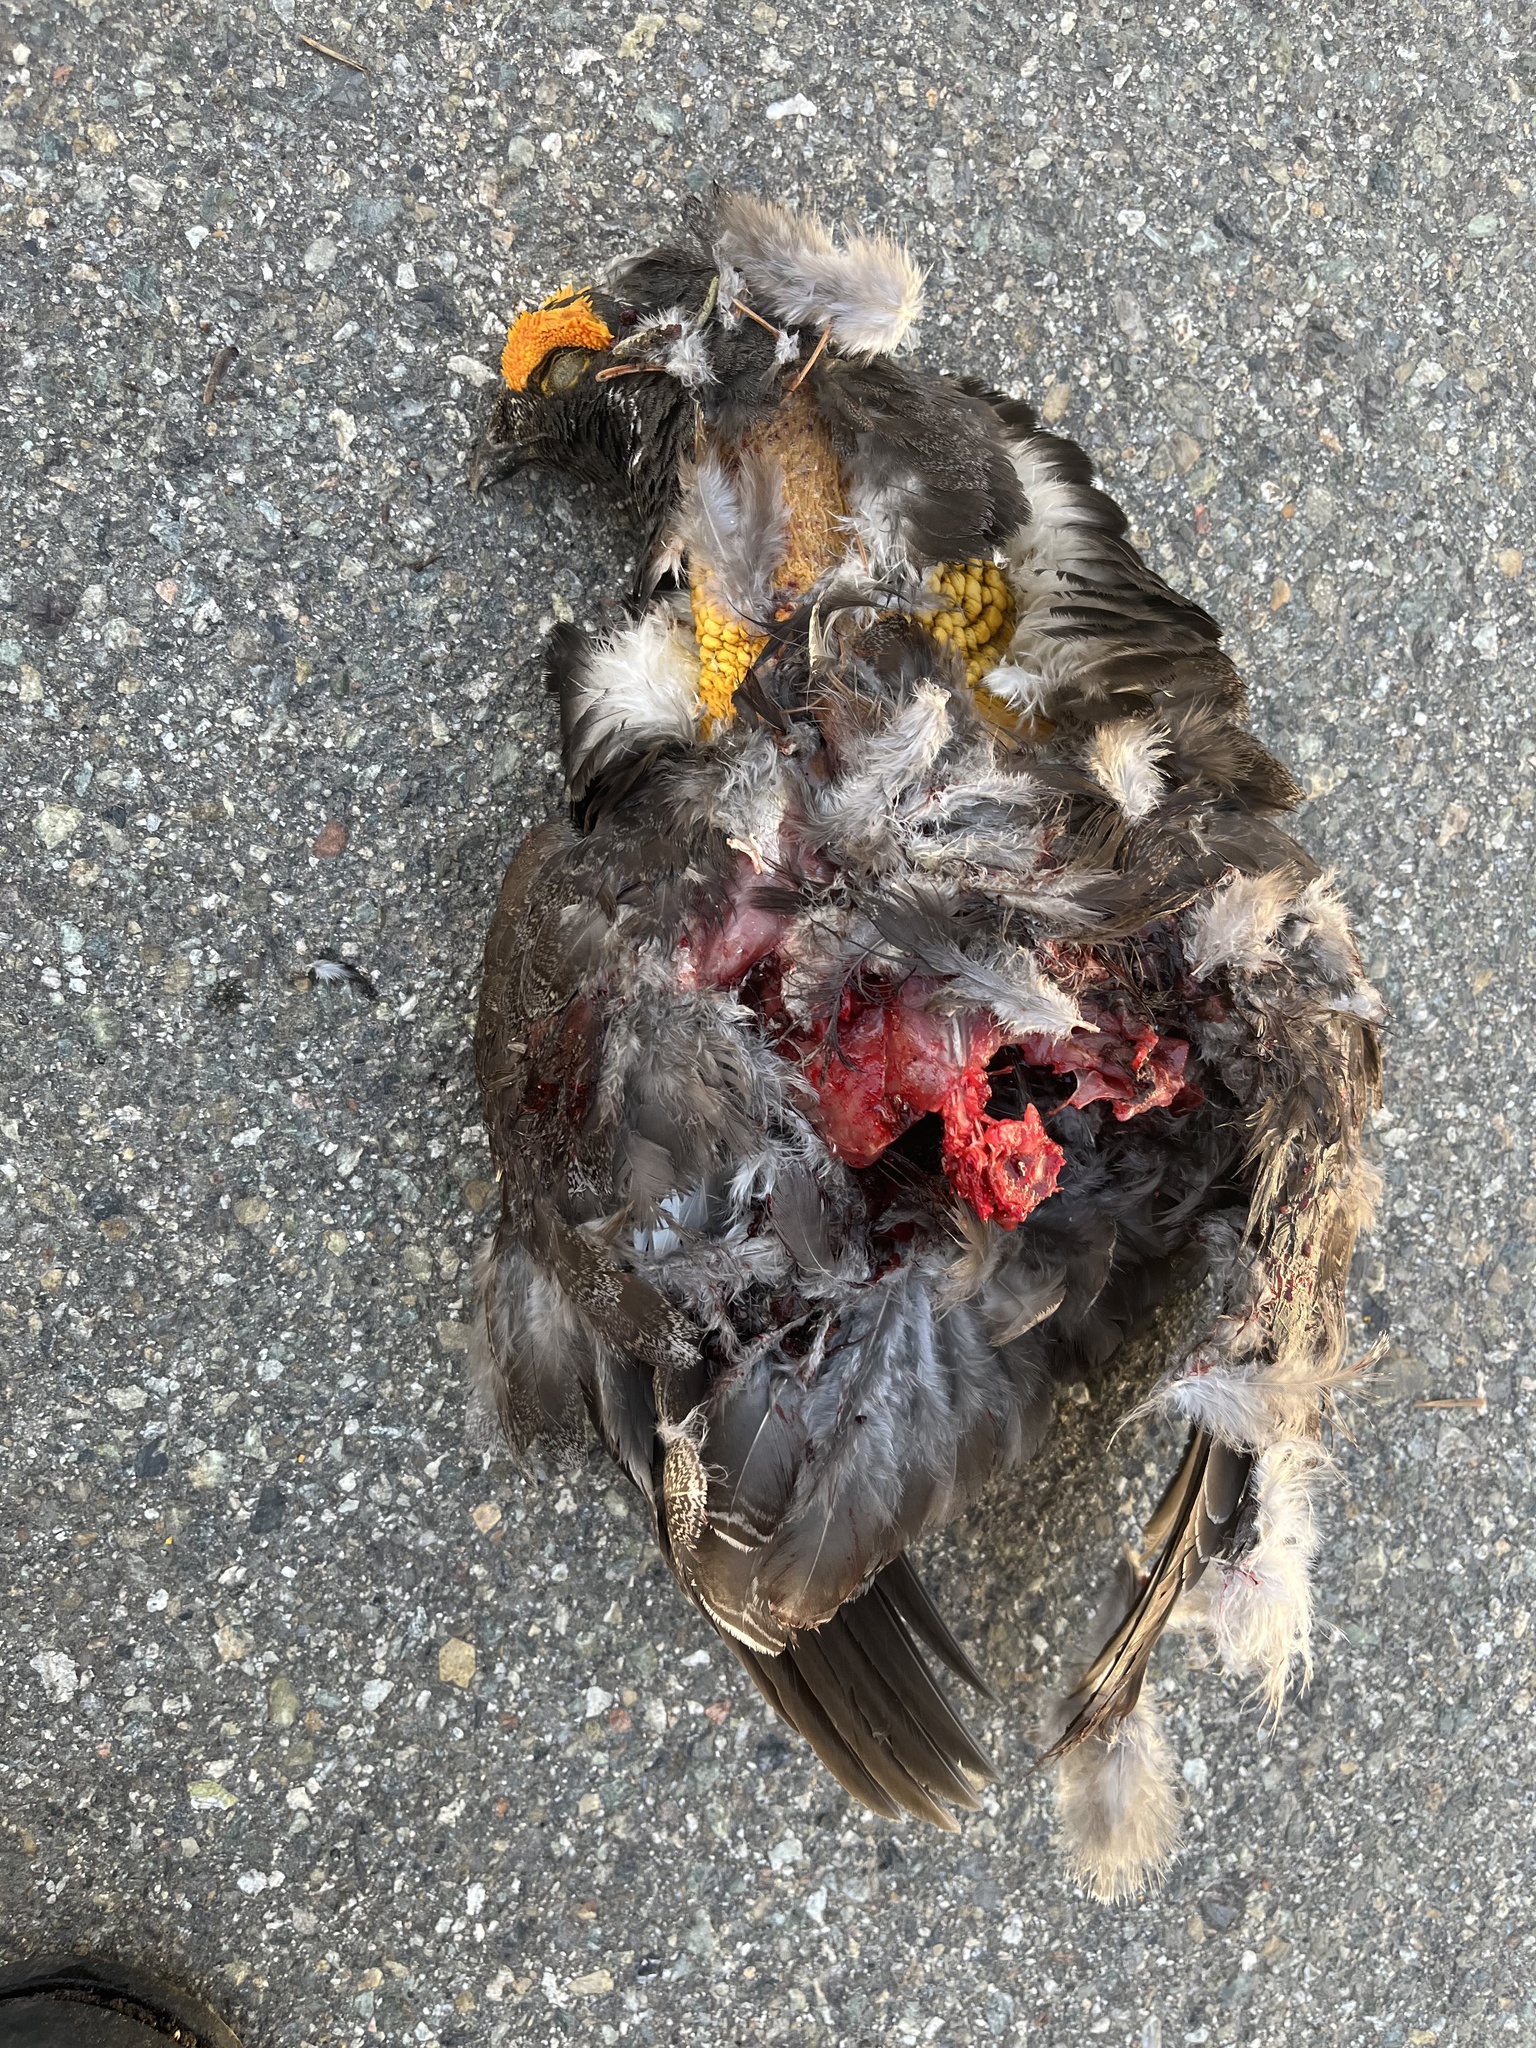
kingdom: Animalia
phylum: Chordata
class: Aves
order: Galliformes
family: Phasianidae
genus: Dendragapus
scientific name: Dendragapus fuliginosus
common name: Sooty grouse
